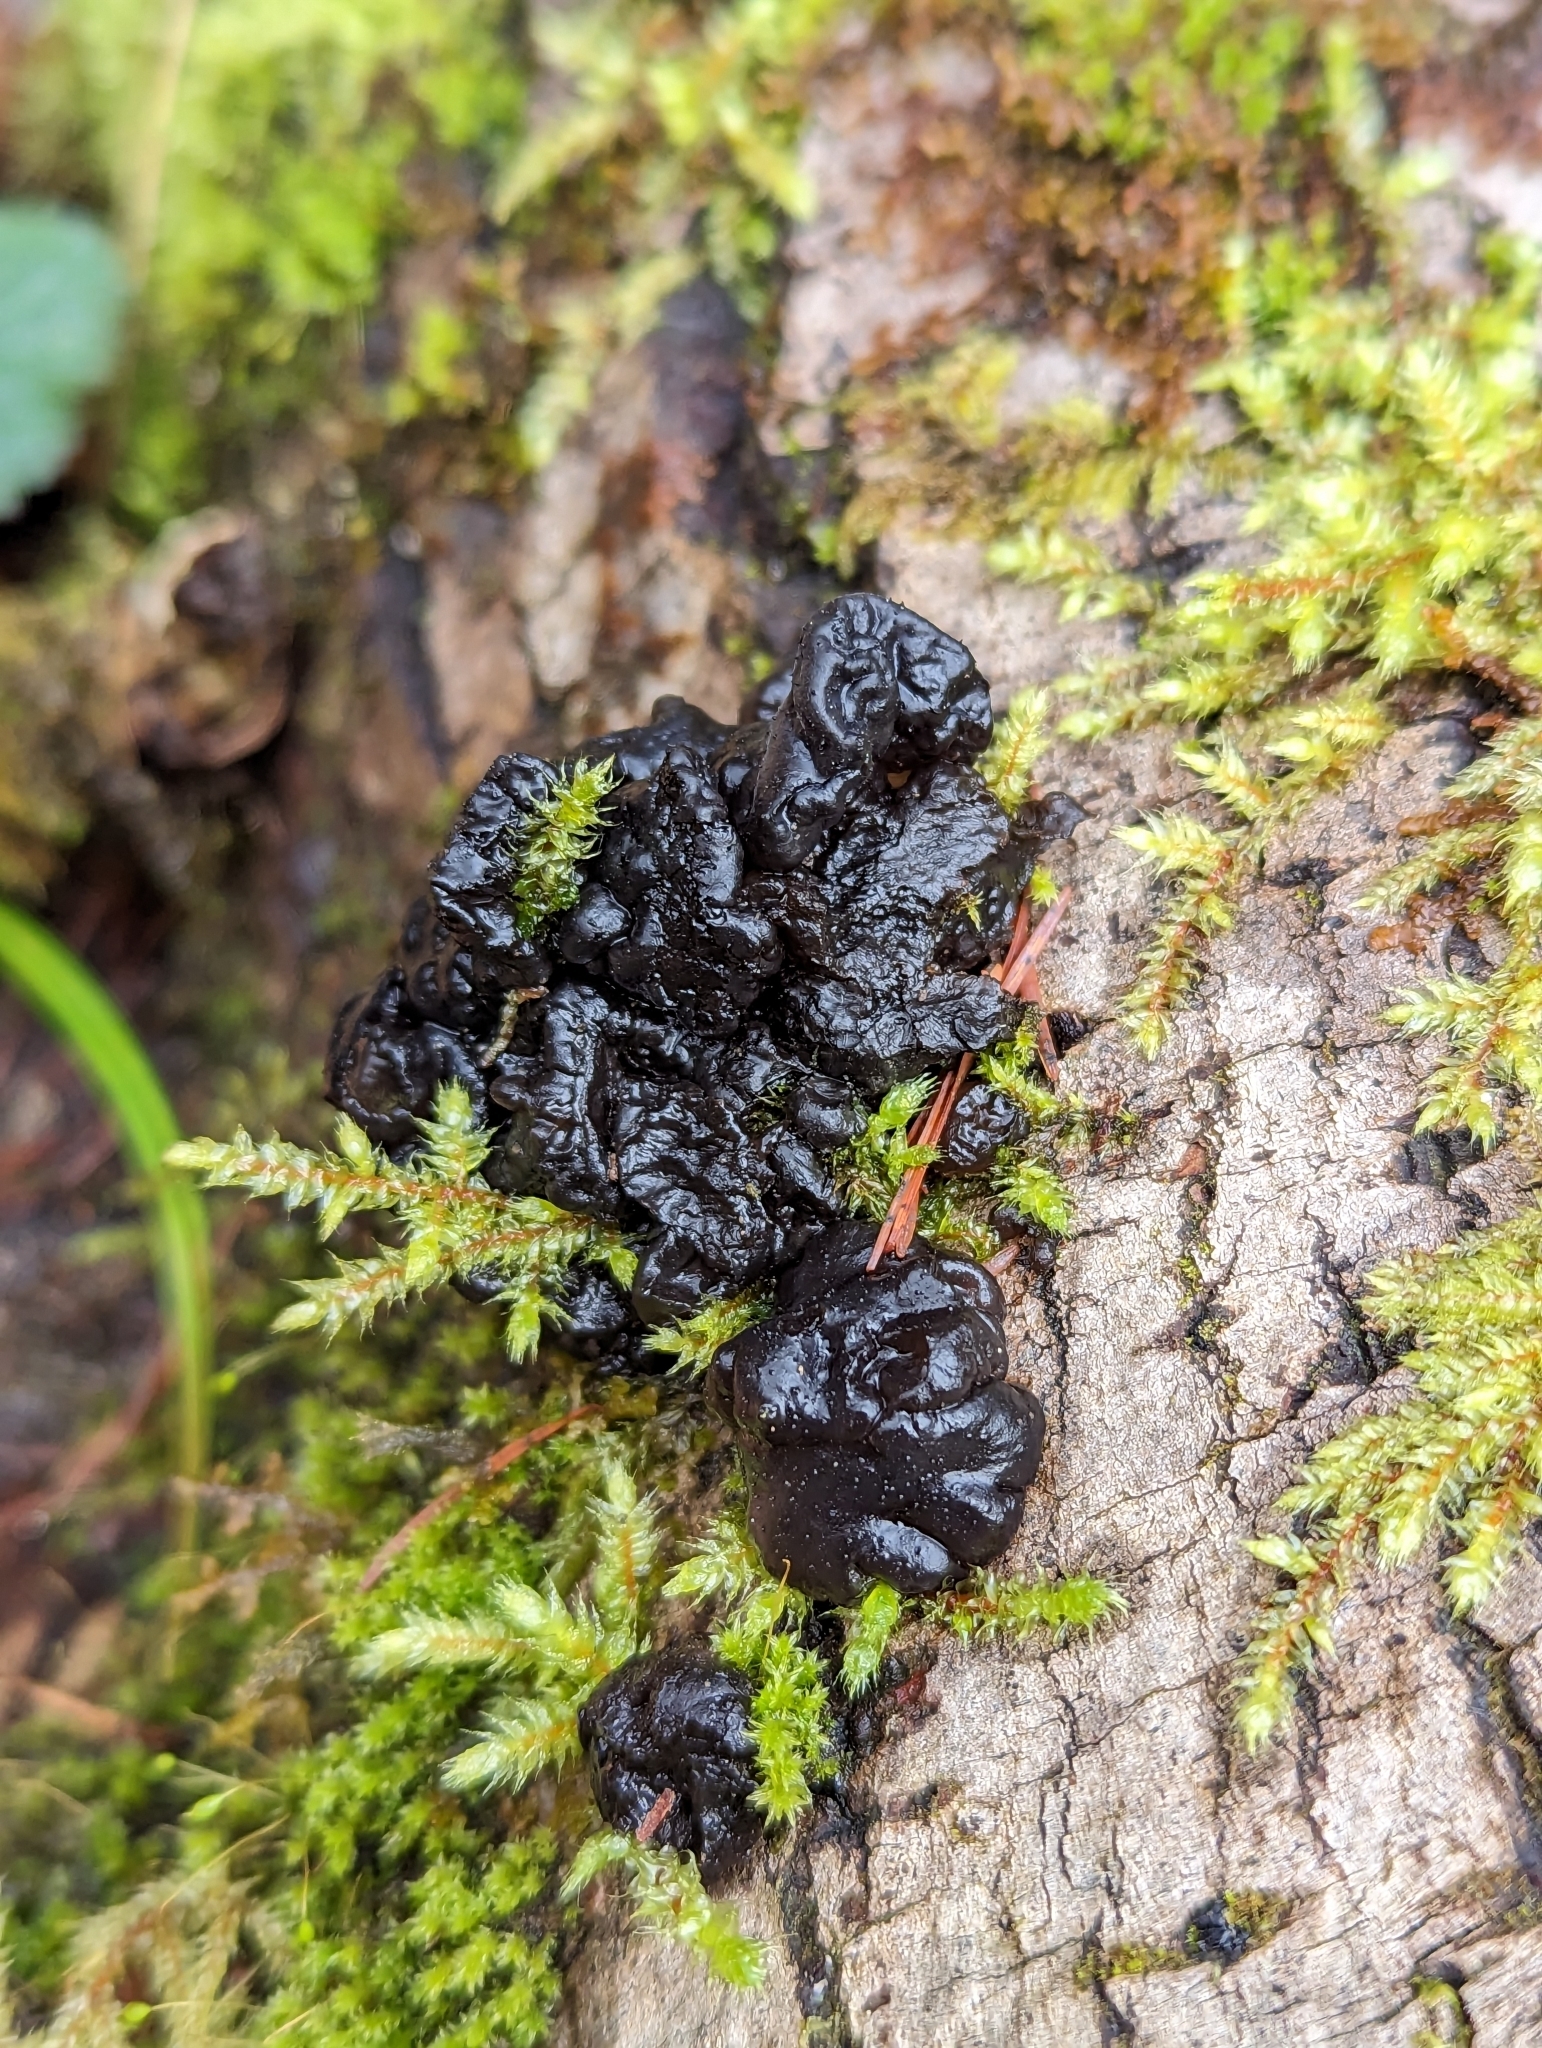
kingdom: Fungi
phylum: Basidiomycota
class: Agaricomycetes
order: Auriculariales
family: Auriculariaceae
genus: Exidia
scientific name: Exidia glandulosa
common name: Witches' butter
